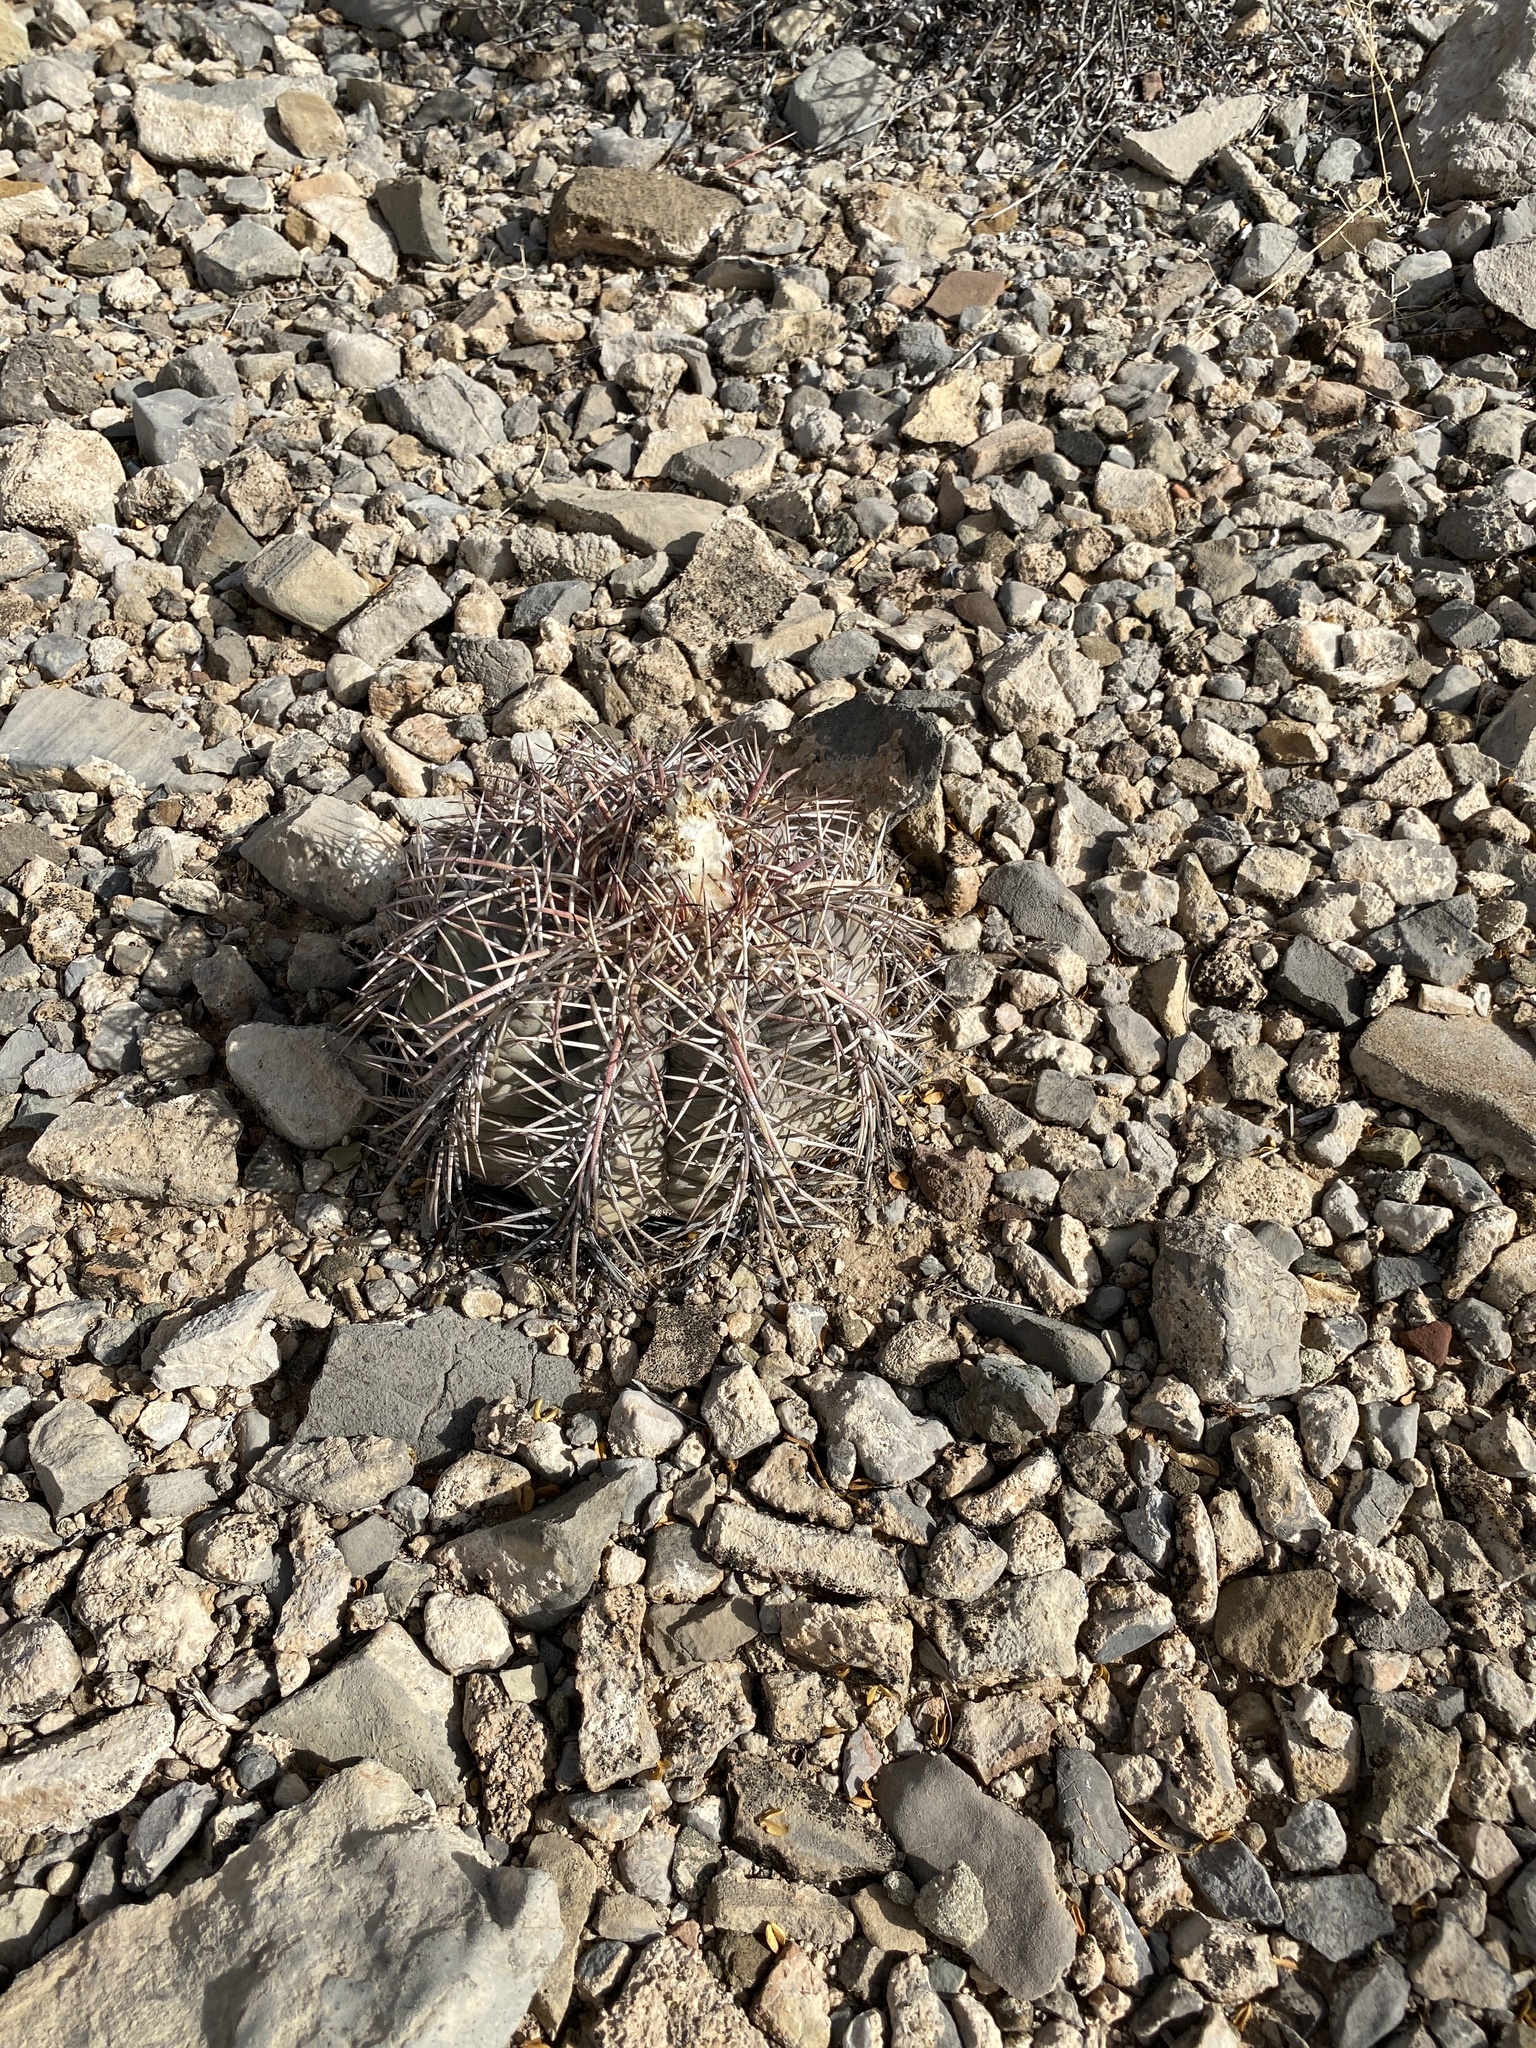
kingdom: Plantae
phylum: Tracheophyta
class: Magnoliopsida
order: Caryophyllales
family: Cactaceae
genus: Echinocactus
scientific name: Echinocactus horizonthalonius
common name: Devilshead
